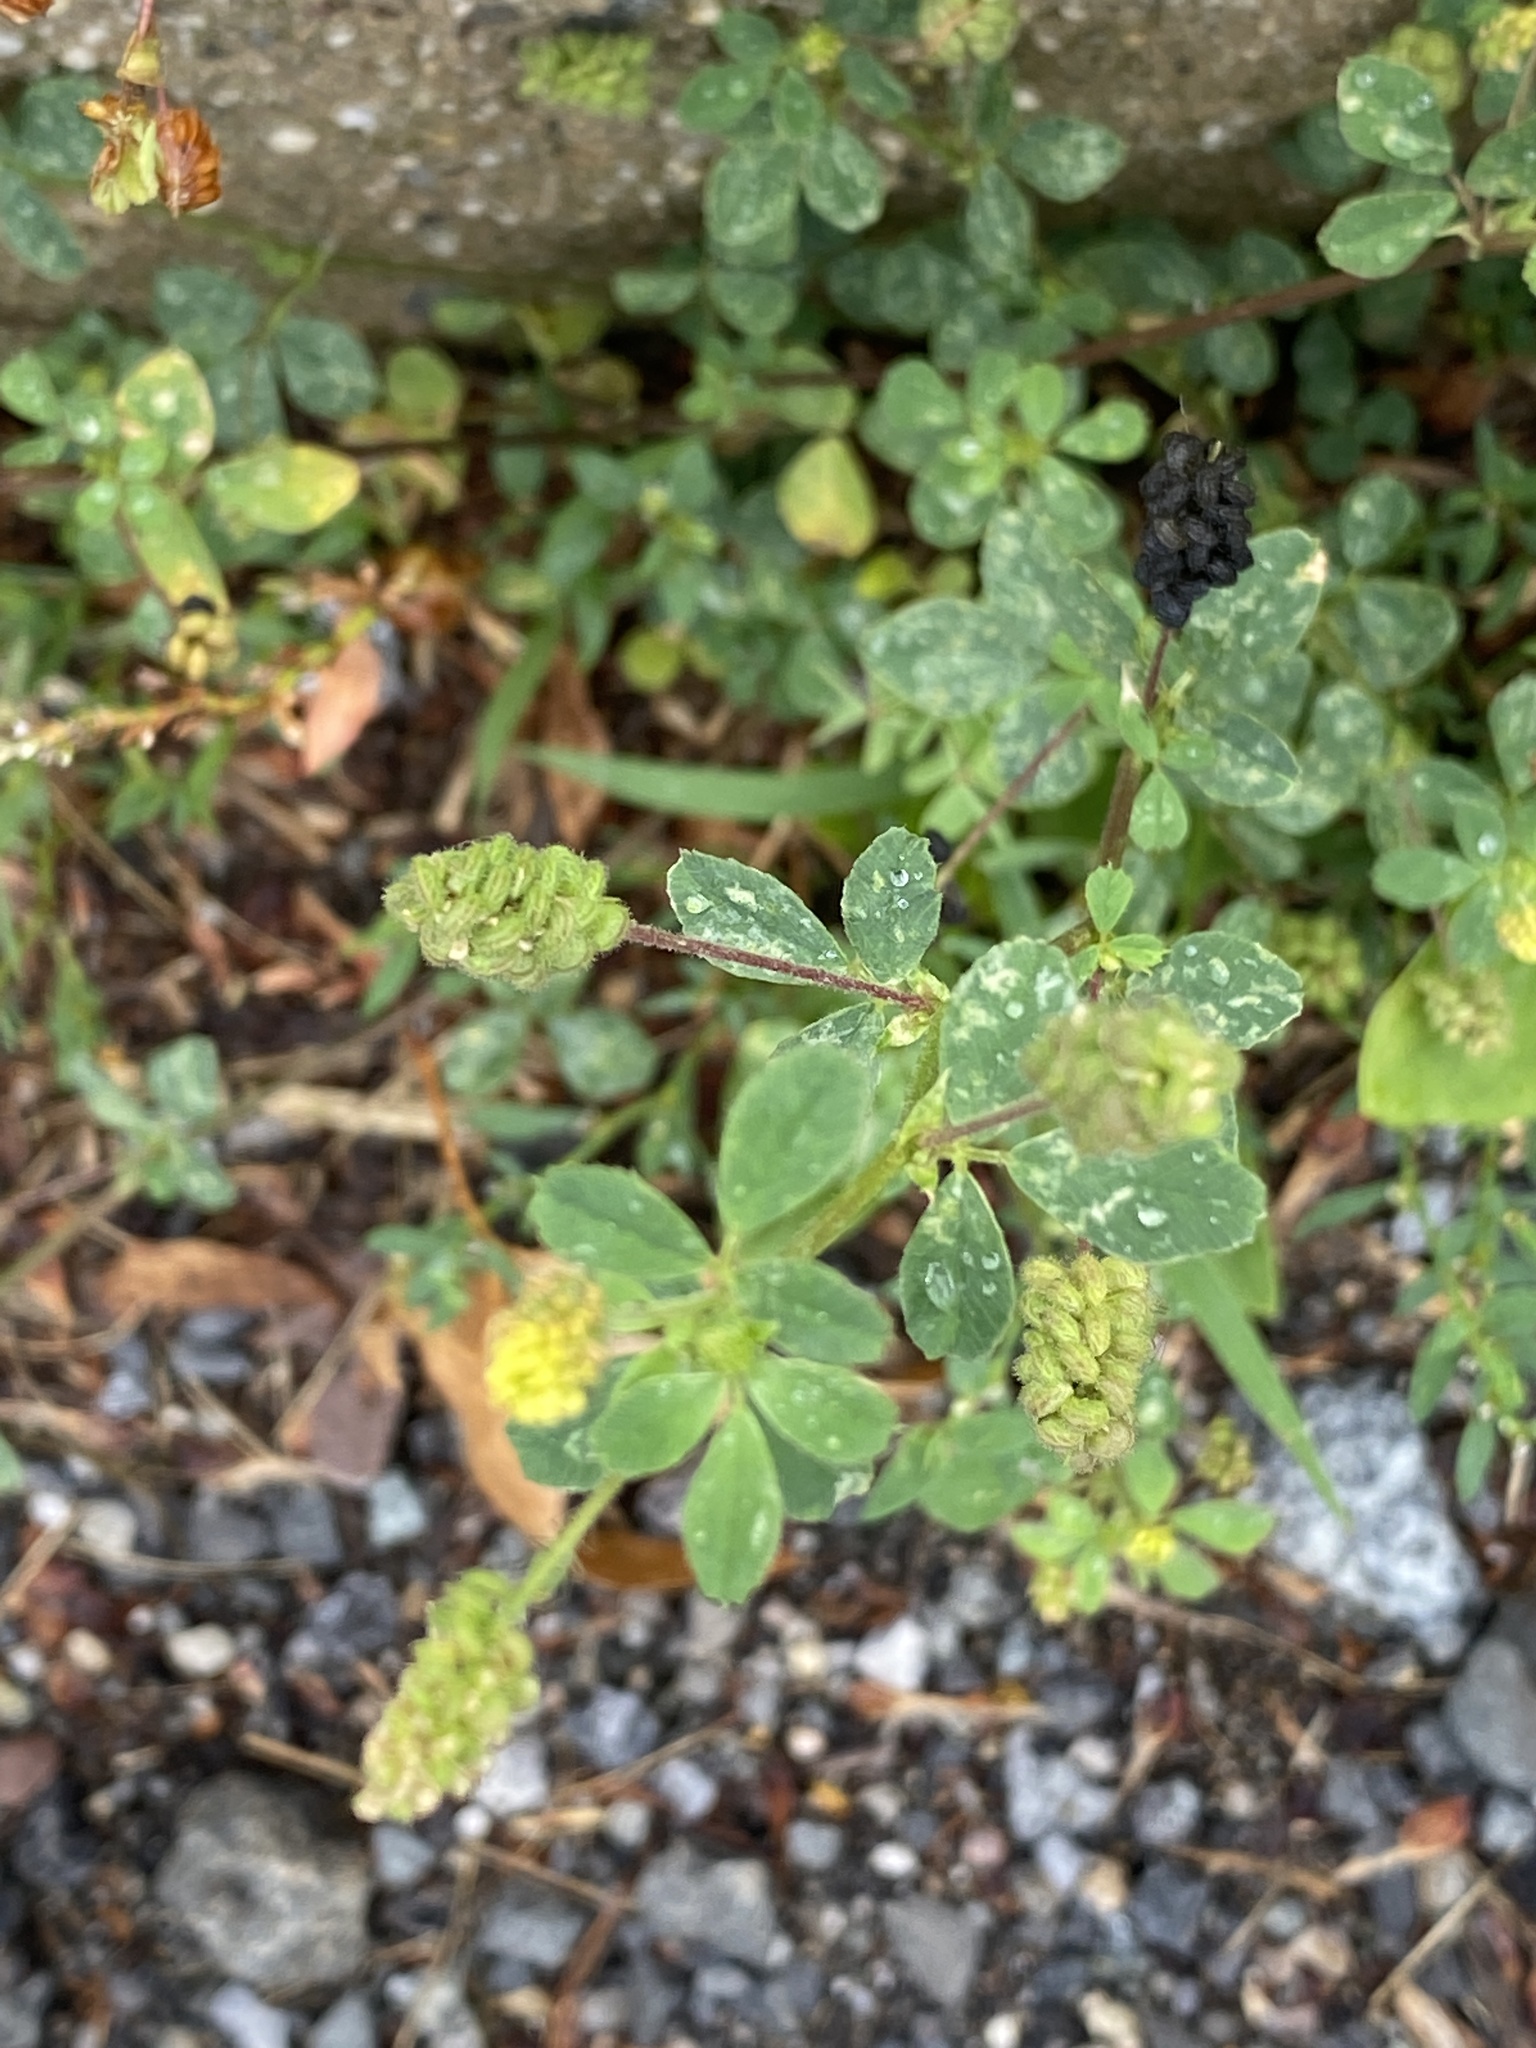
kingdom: Plantae
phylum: Tracheophyta
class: Magnoliopsida
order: Fabales
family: Fabaceae
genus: Medicago
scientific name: Medicago lupulina
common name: Black medick
